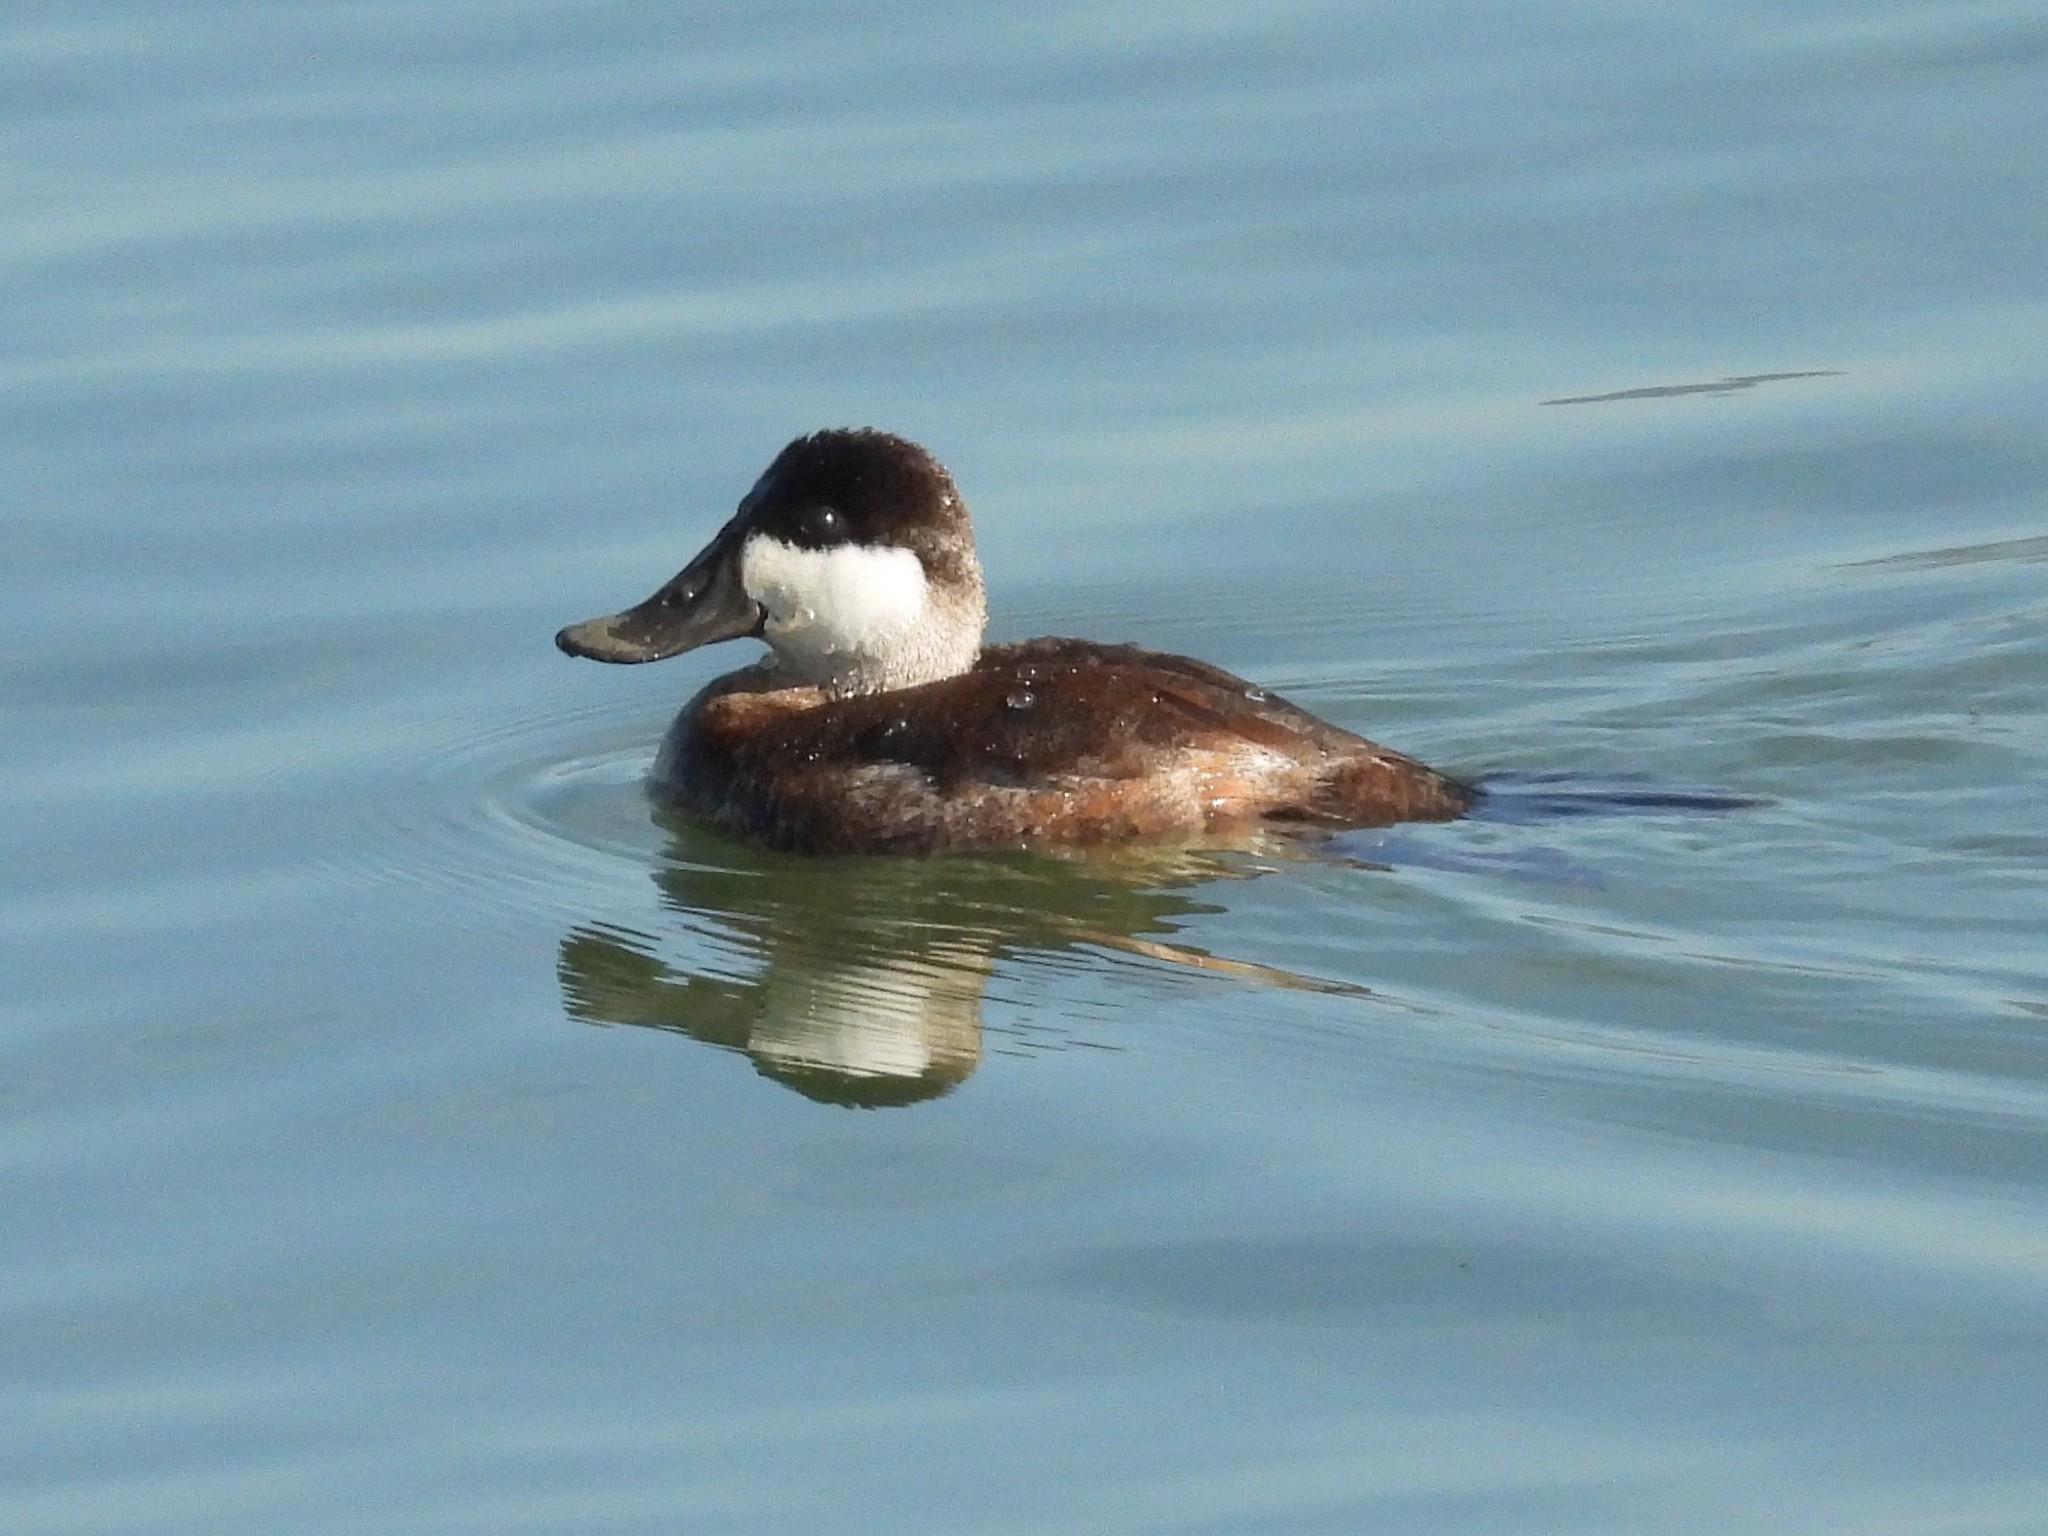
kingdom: Animalia
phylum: Chordata
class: Aves
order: Anseriformes
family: Anatidae
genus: Oxyura
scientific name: Oxyura jamaicensis
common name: Ruddy duck
